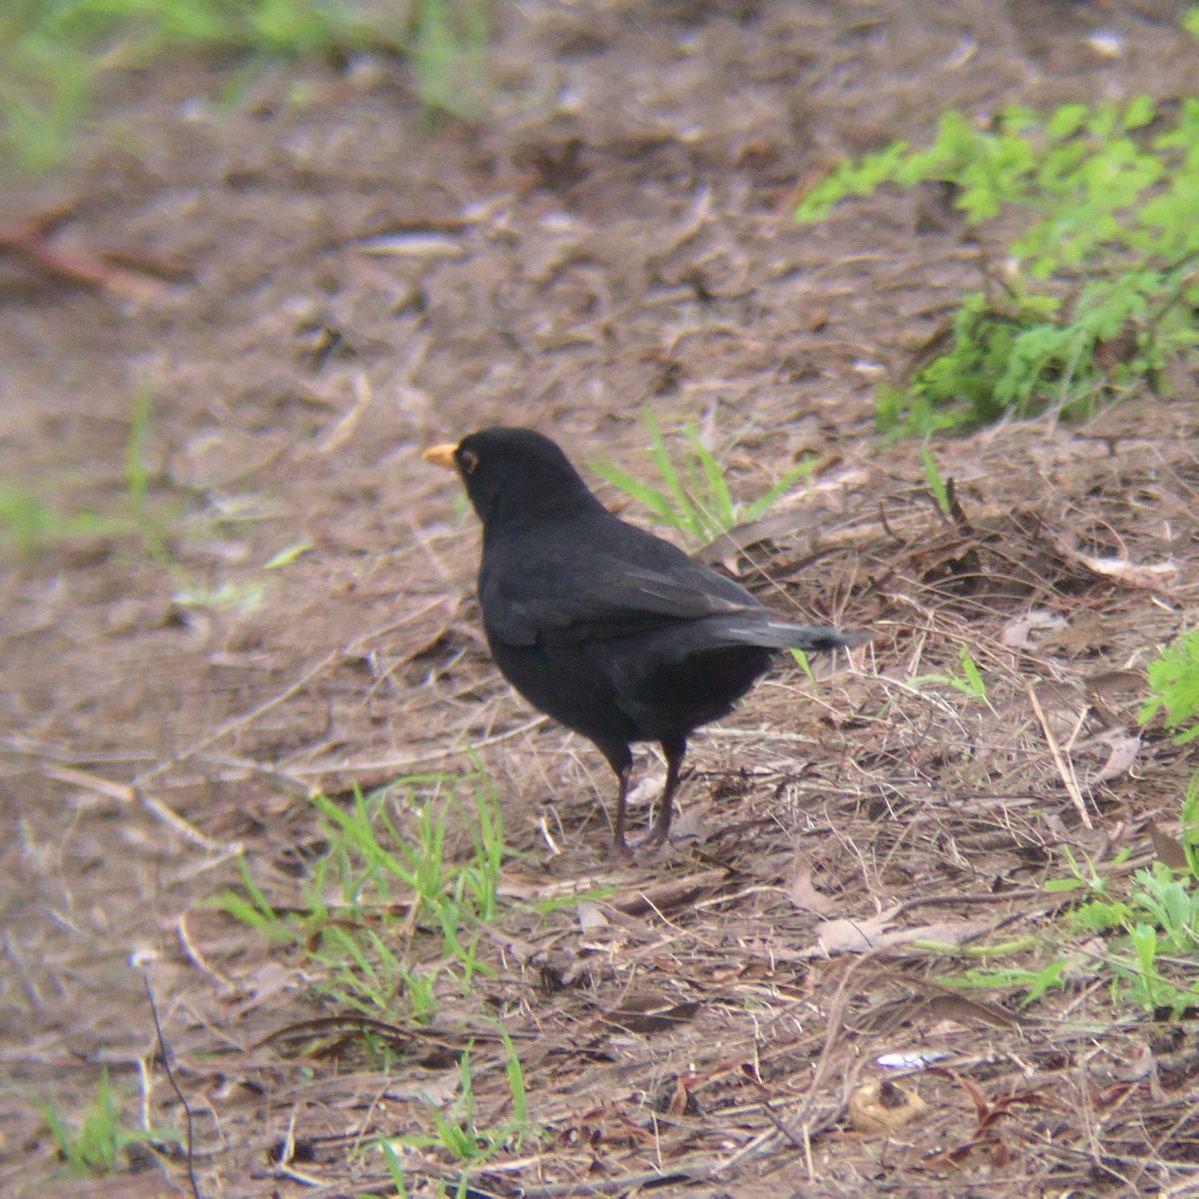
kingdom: Animalia
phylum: Chordata
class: Aves
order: Passeriformes
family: Turdidae
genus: Turdus
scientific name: Turdus merula
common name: Common blackbird
